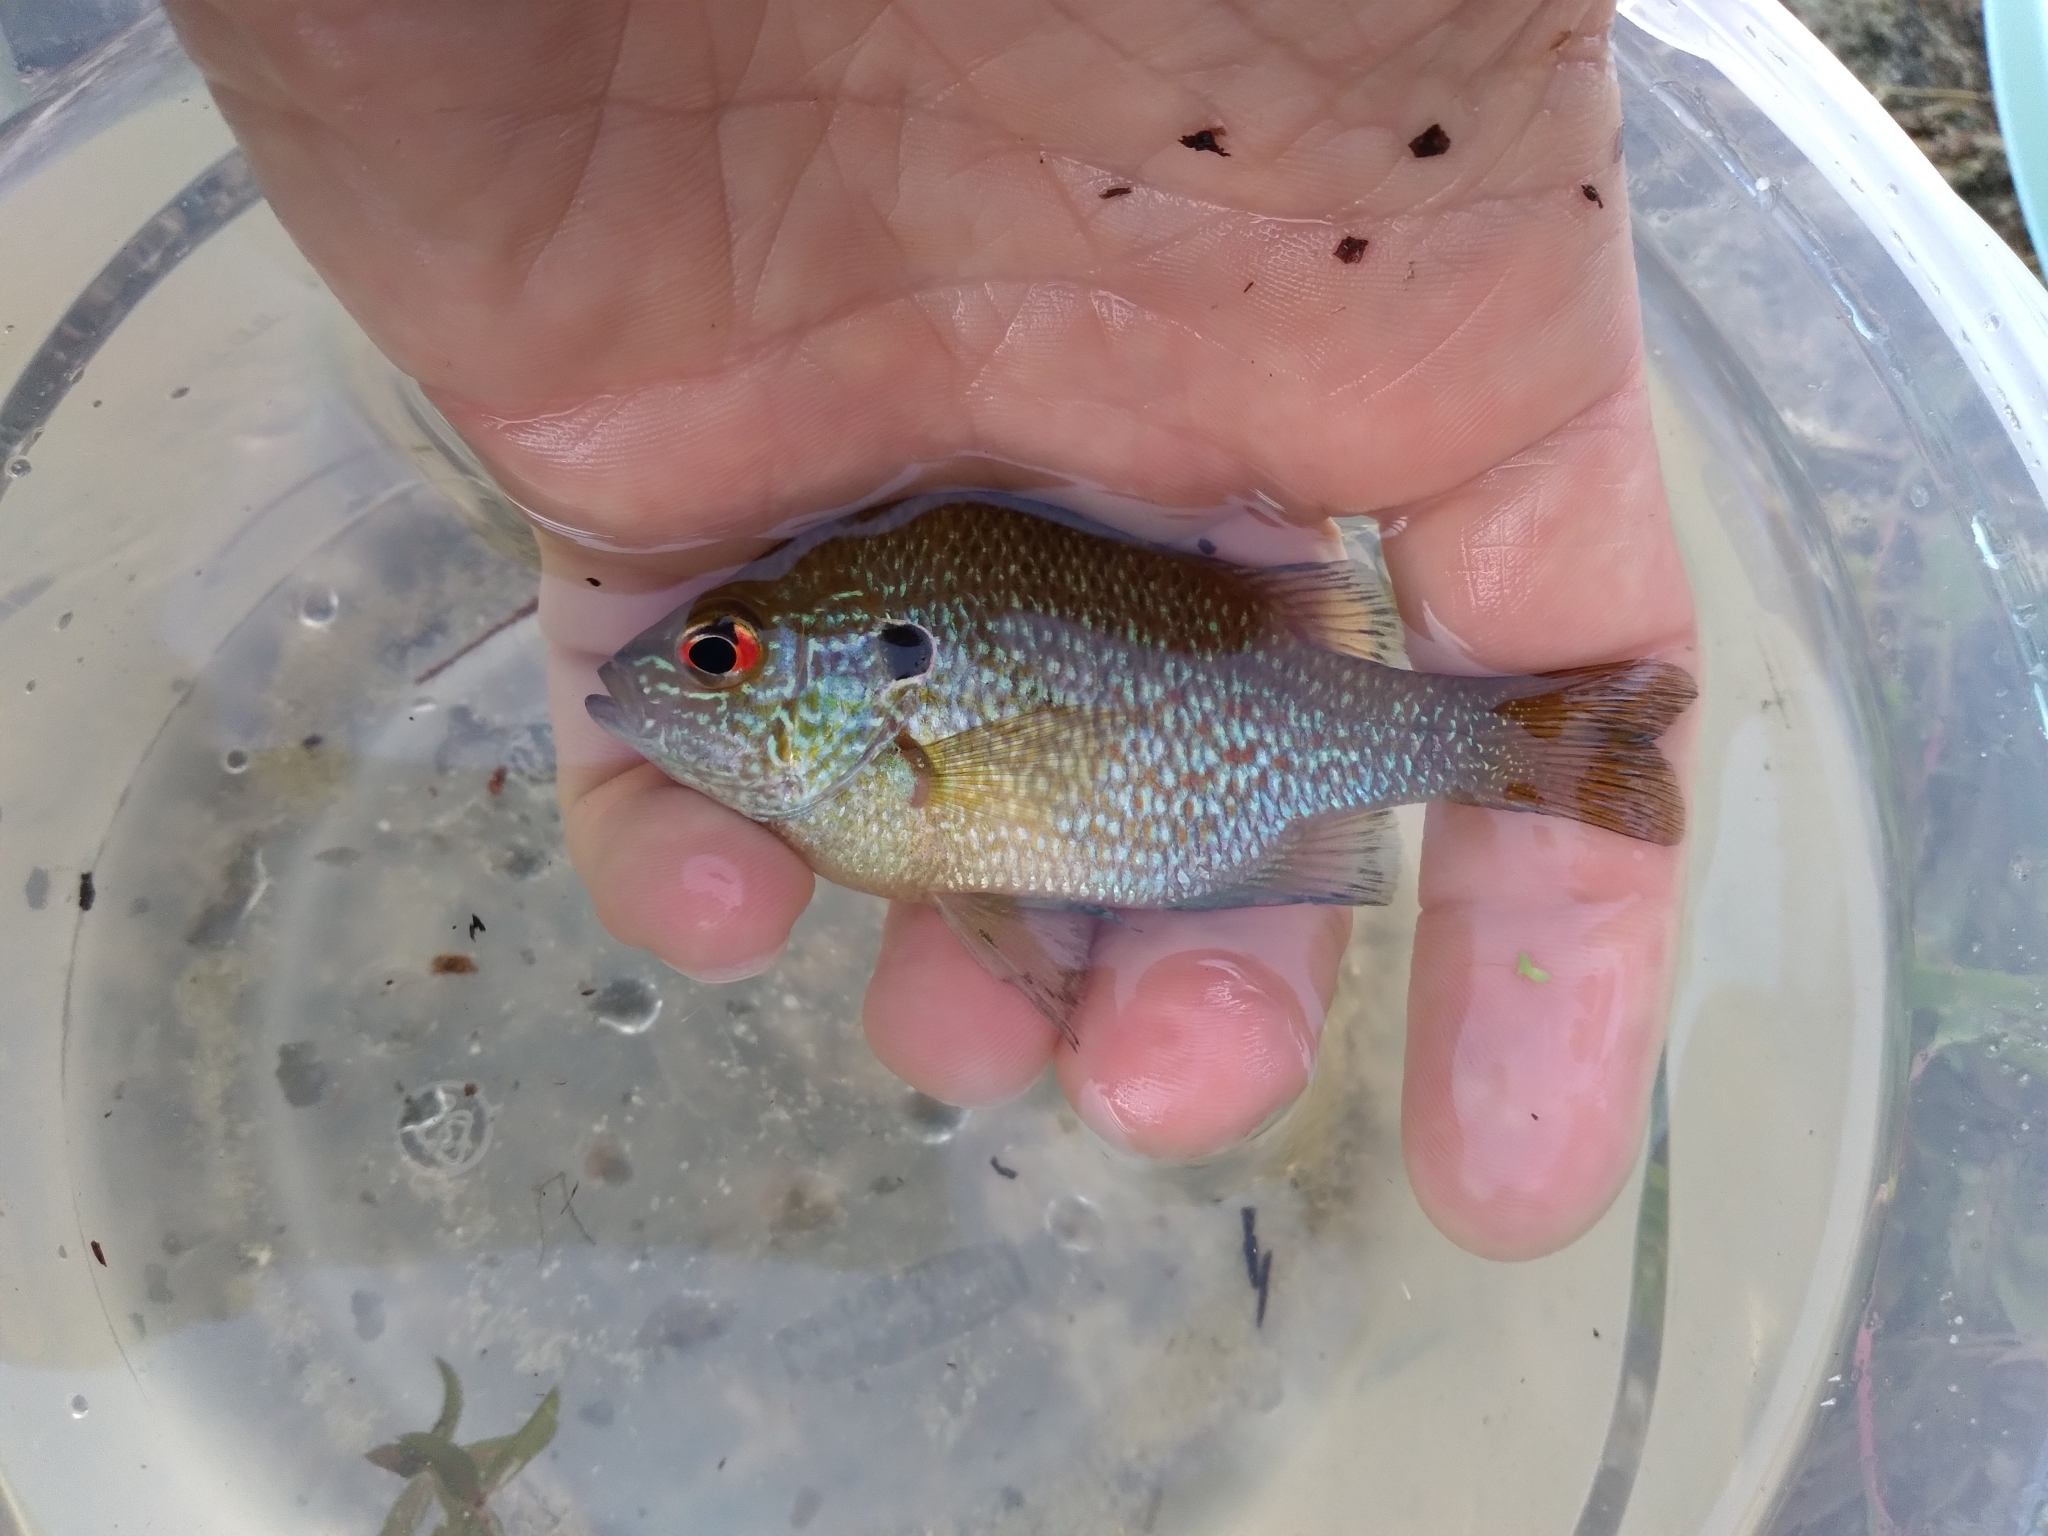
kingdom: Animalia
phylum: Chordata
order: Perciformes
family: Centrarchidae
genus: Lepomis
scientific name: Lepomis marginatus
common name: Dollar sunfish
